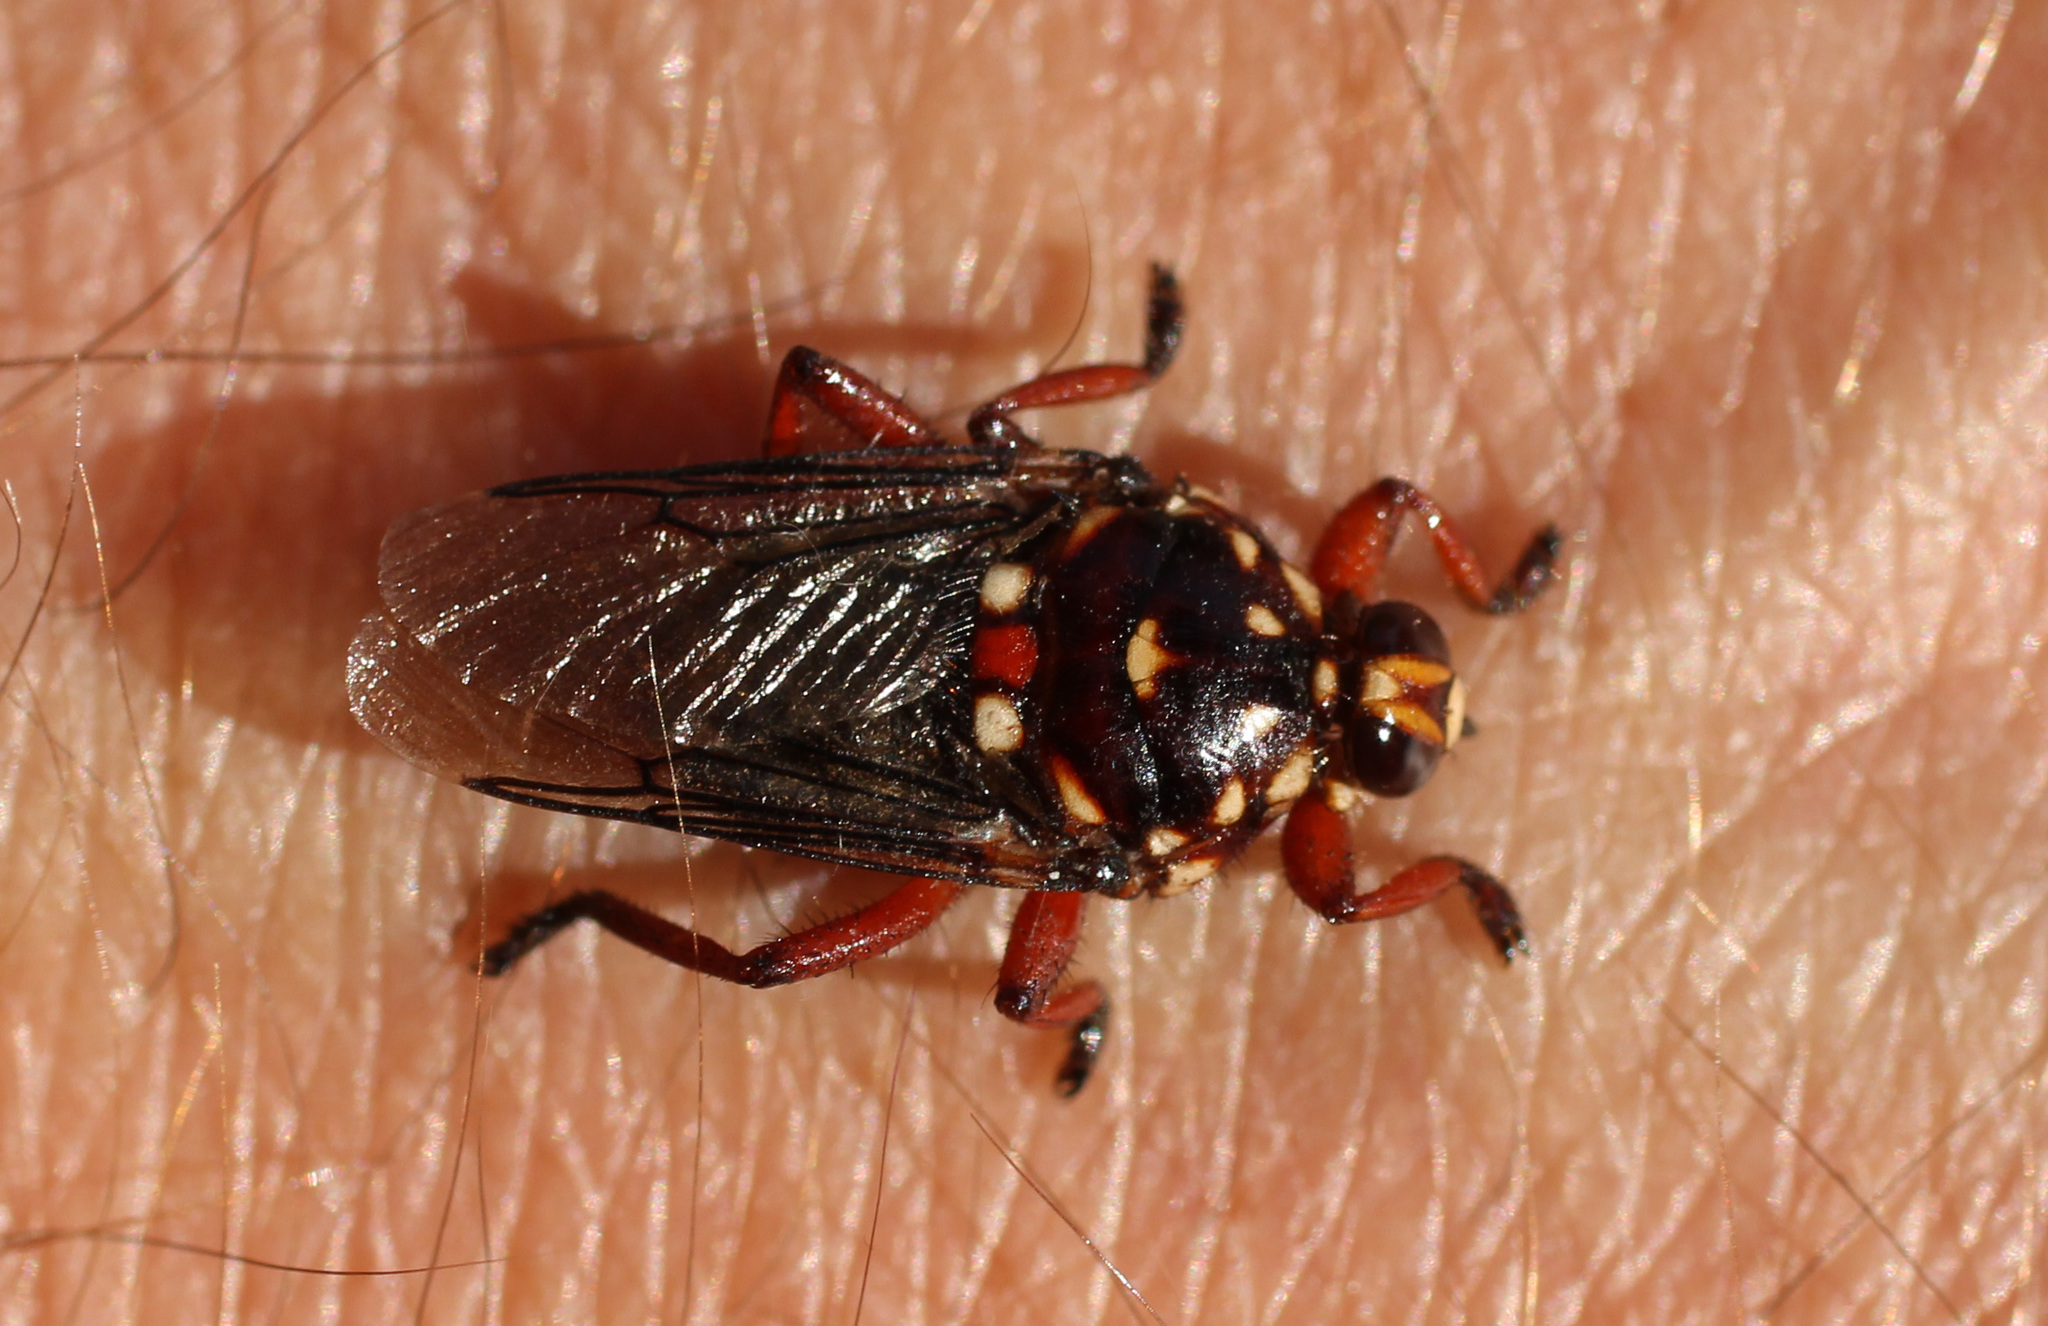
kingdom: Animalia
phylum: Arthropoda
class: Insecta
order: Diptera
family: Hippoboscidae
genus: Hippobosca
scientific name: Hippobosca rufipes
